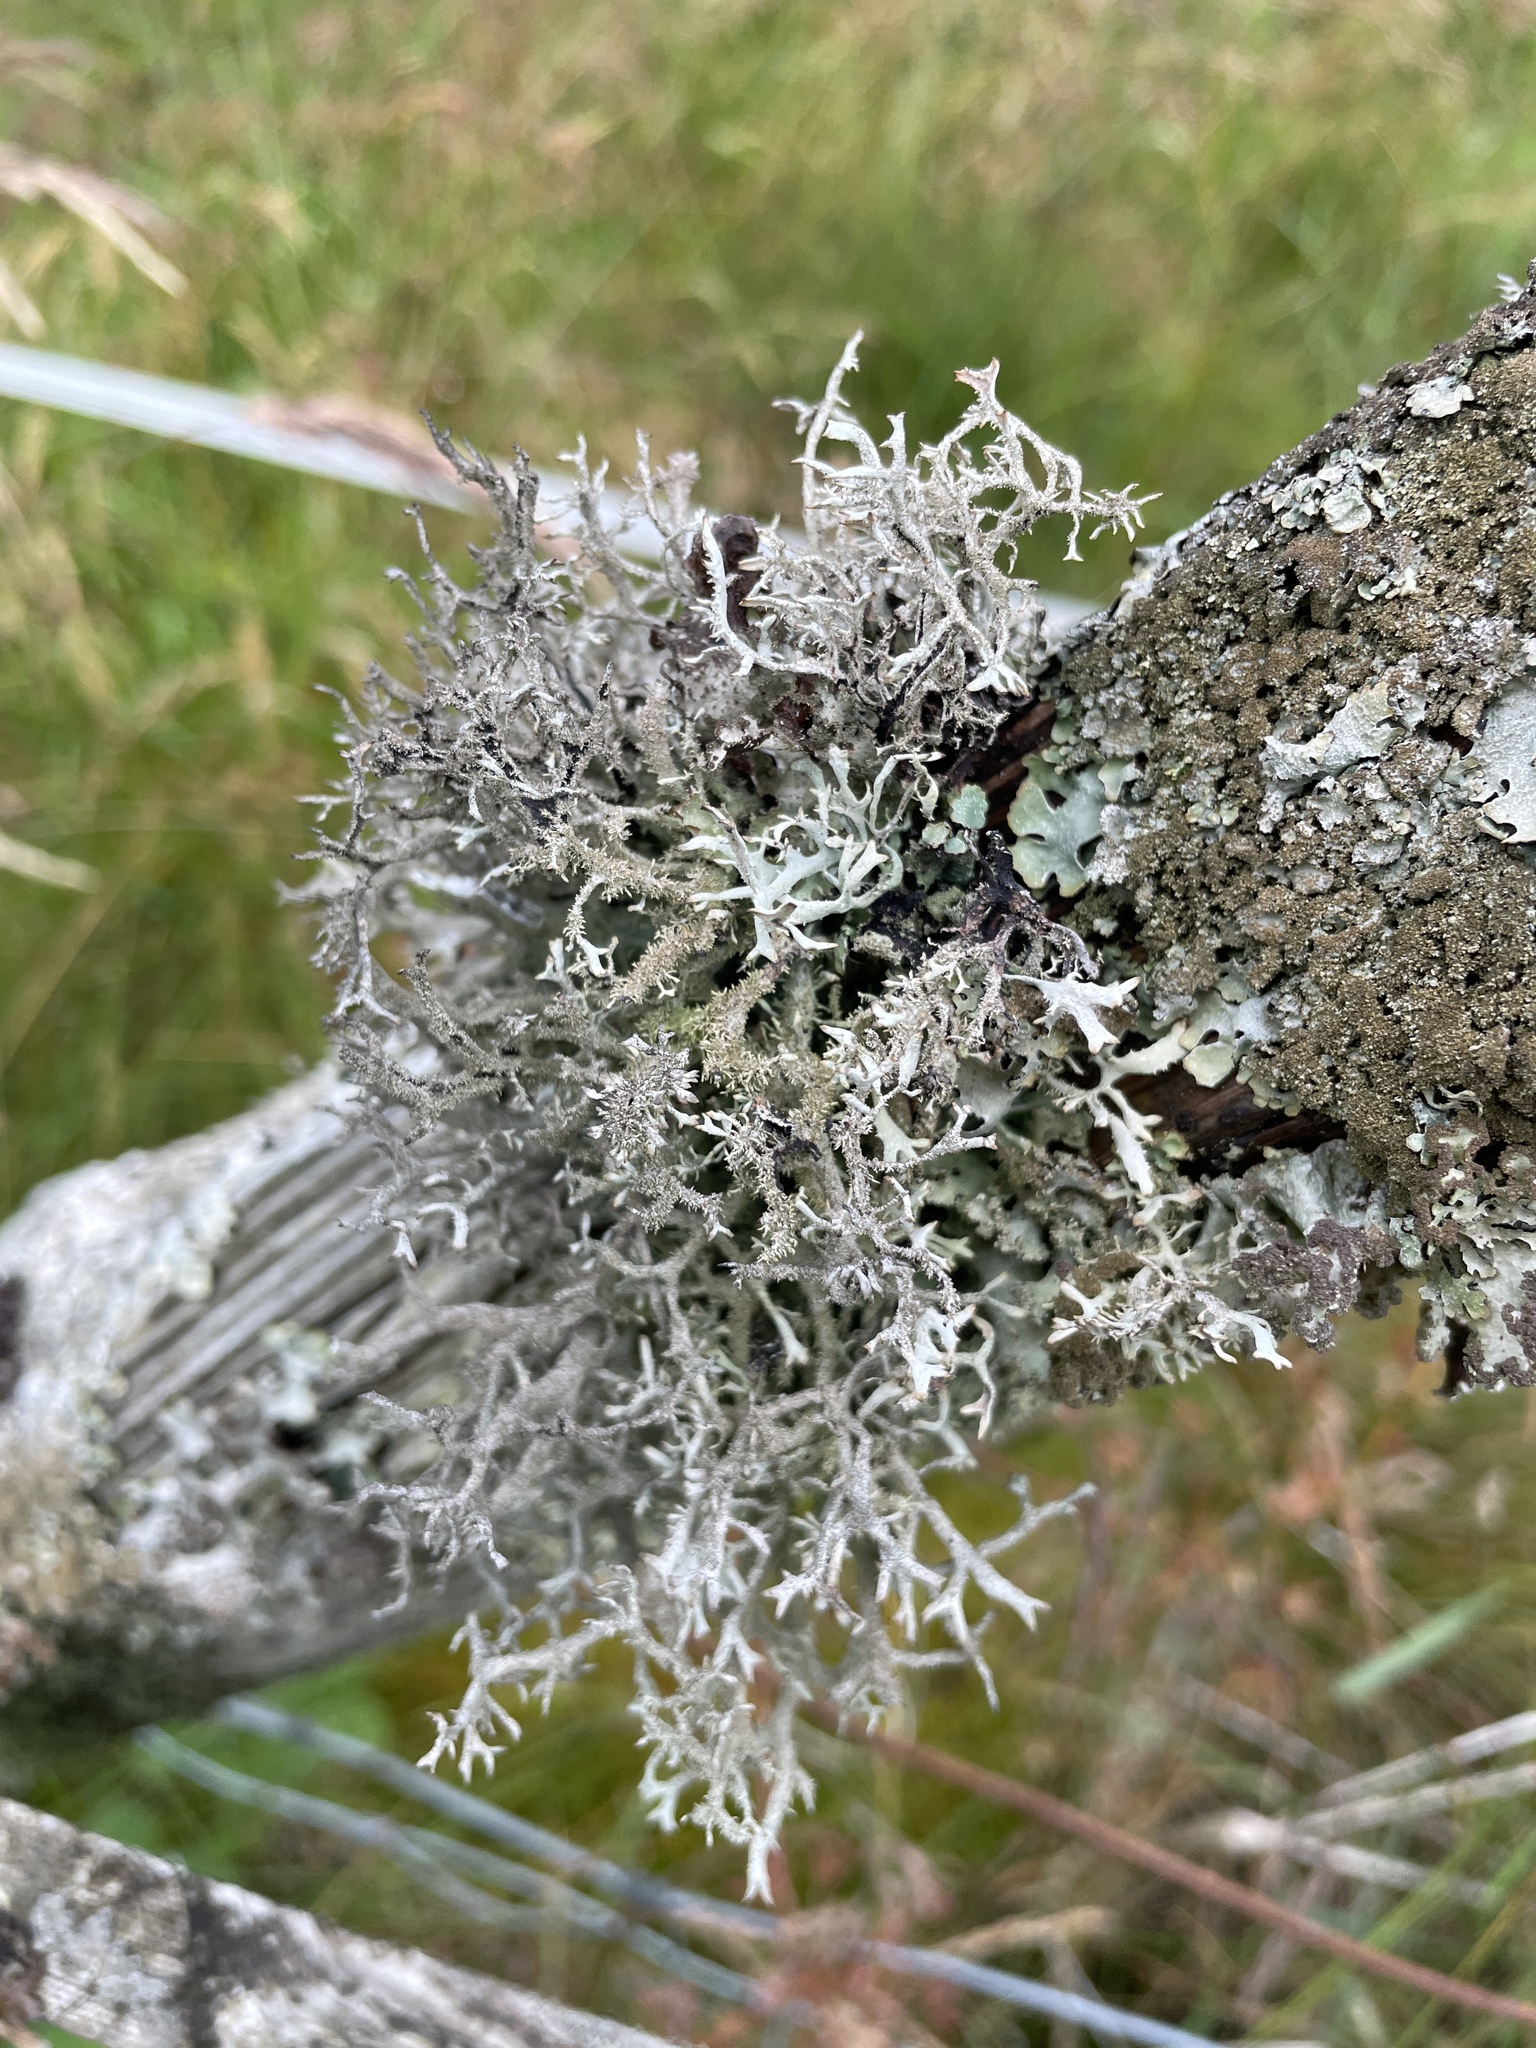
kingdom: Fungi
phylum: Ascomycota
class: Lecanoromycetes
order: Lecanorales
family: Parmeliaceae
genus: Pseudevernia
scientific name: Pseudevernia furfuracea
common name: Tree moss
